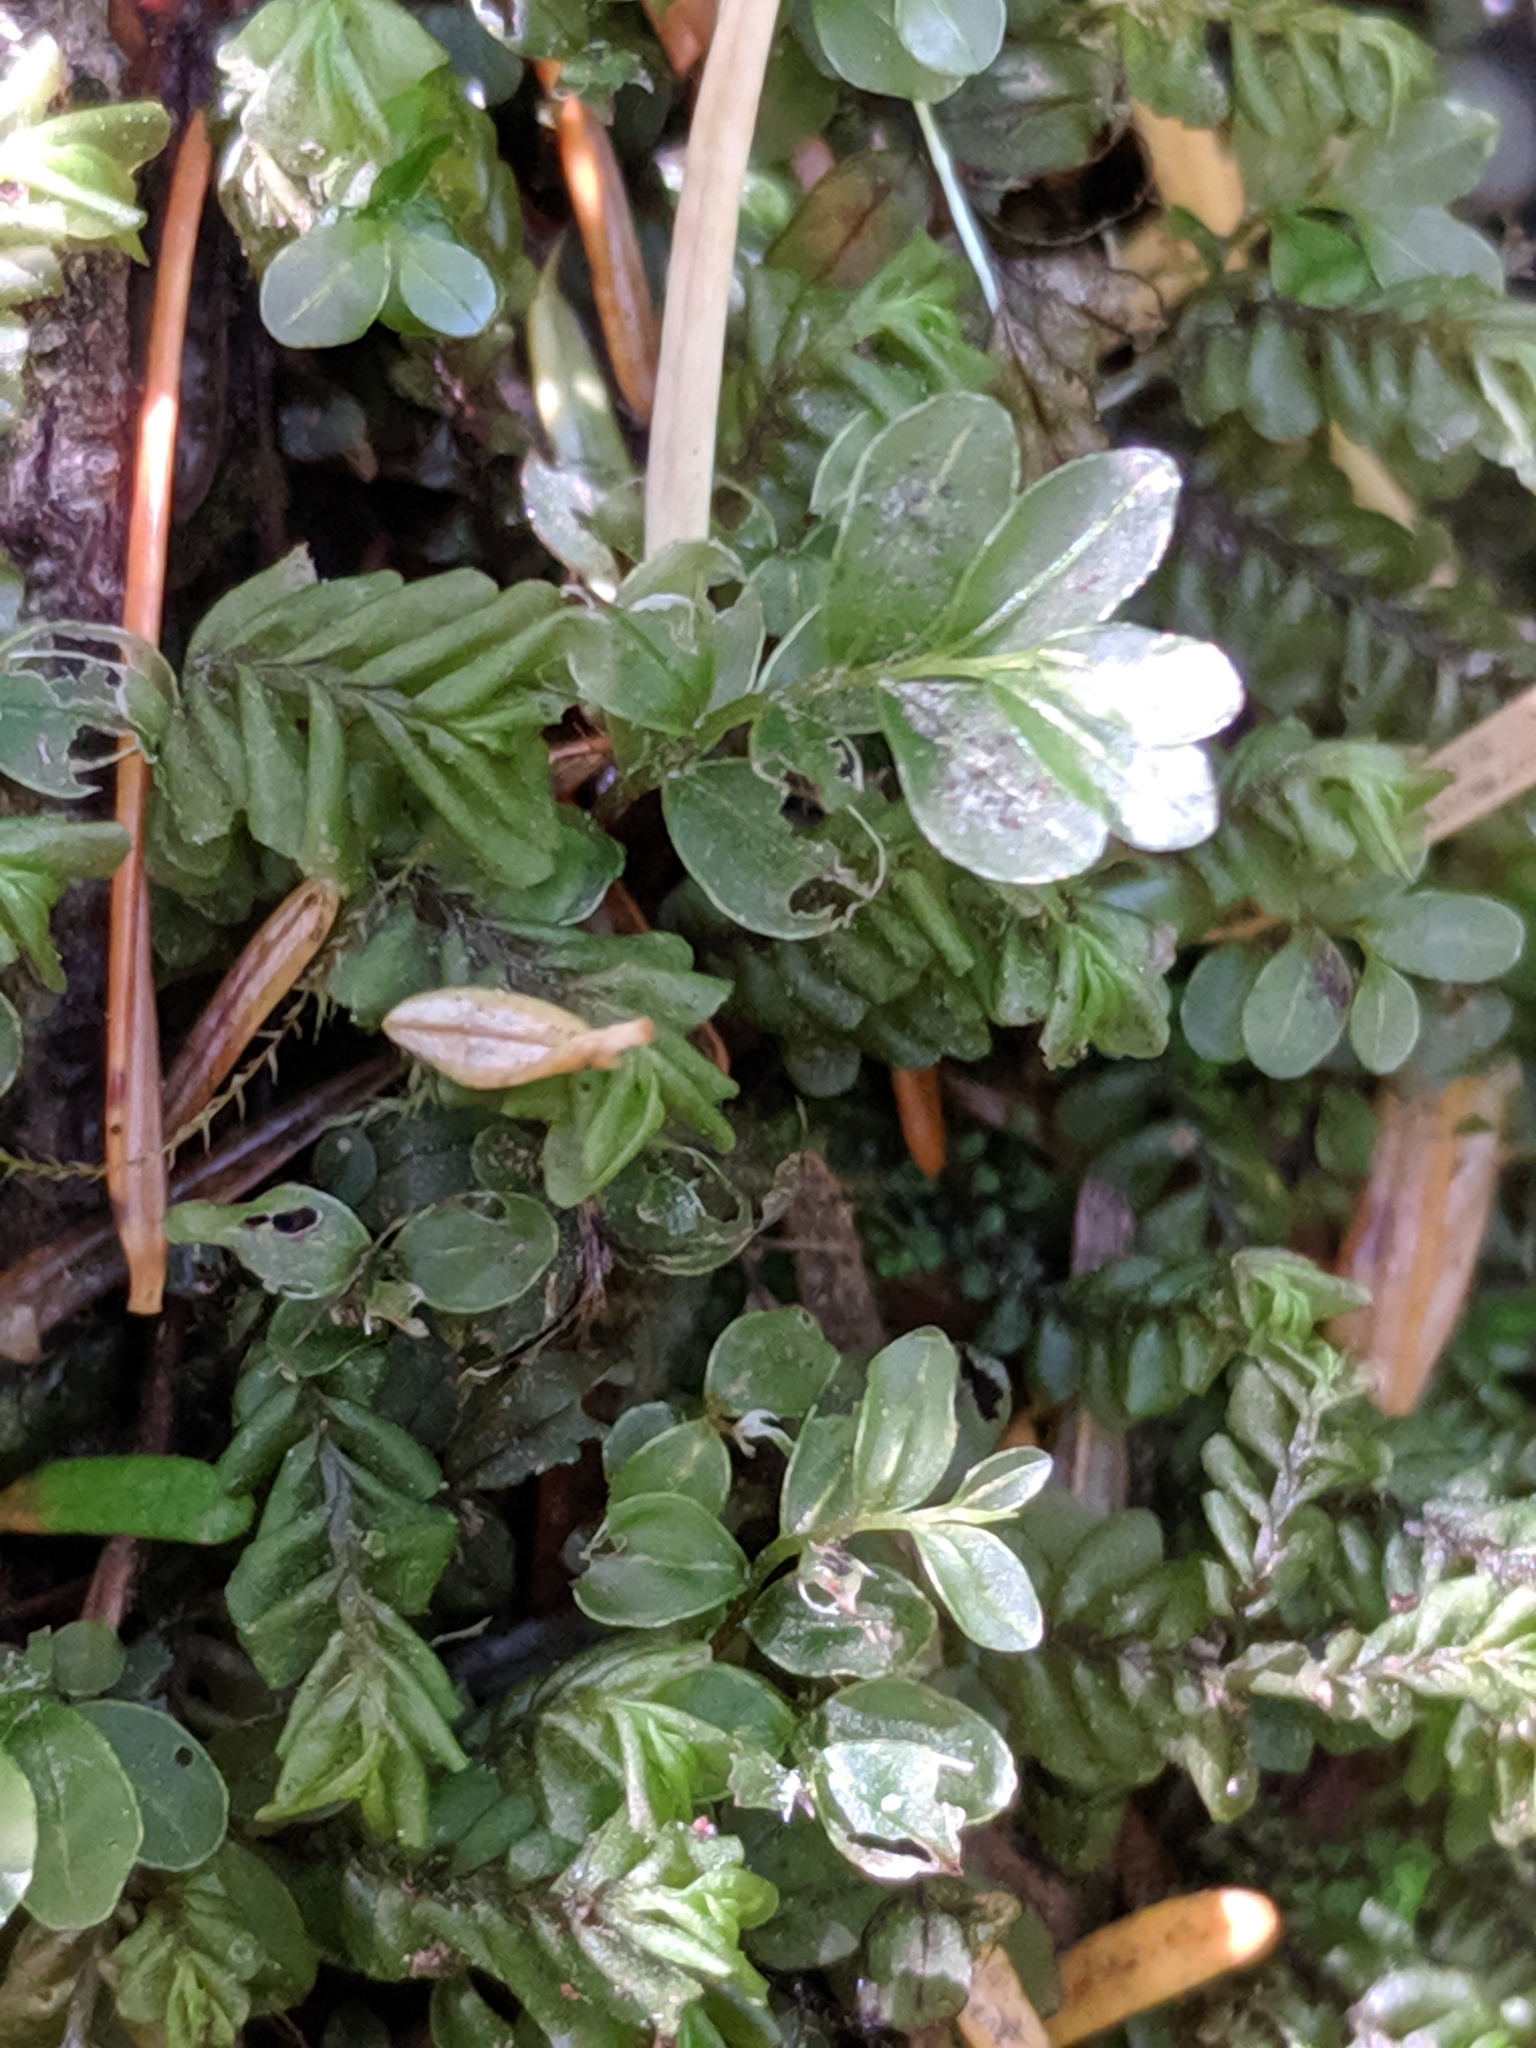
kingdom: Plantae
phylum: Marchantiophyta
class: Jungermanniopsida
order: Jungermanniales
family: Plagiochilaceae
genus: Plagiochila
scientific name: Plagiochila porelloides
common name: Lesser featherwort
